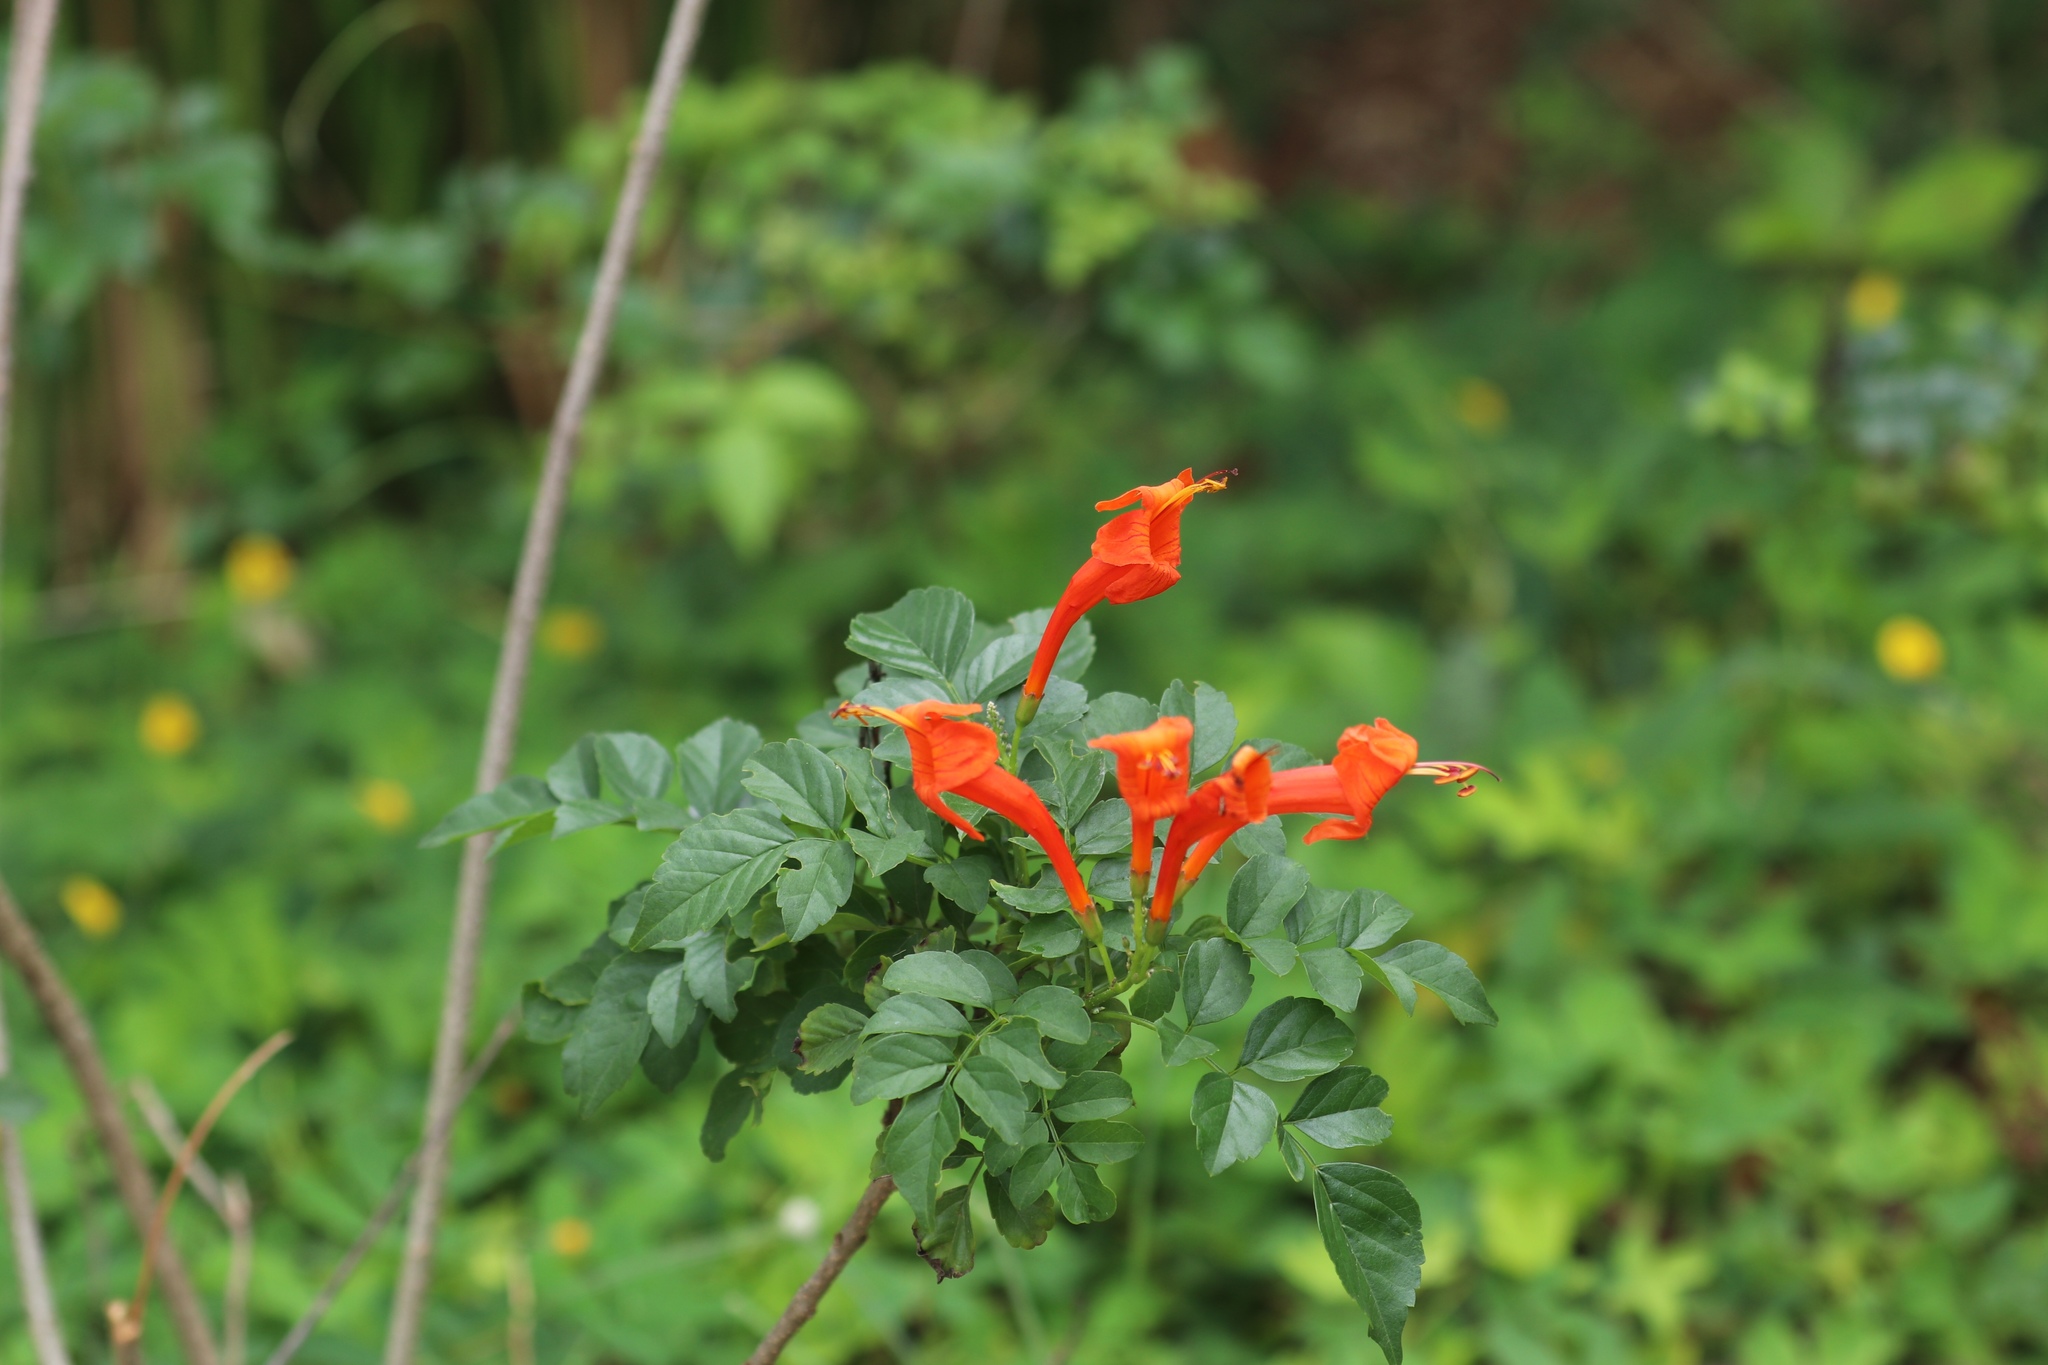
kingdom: Plantae
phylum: Tracheophyta
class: Magnoliopsida
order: Lamiales
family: Bignoniaceae
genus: Tecomaria
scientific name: Tecomaria capensis
